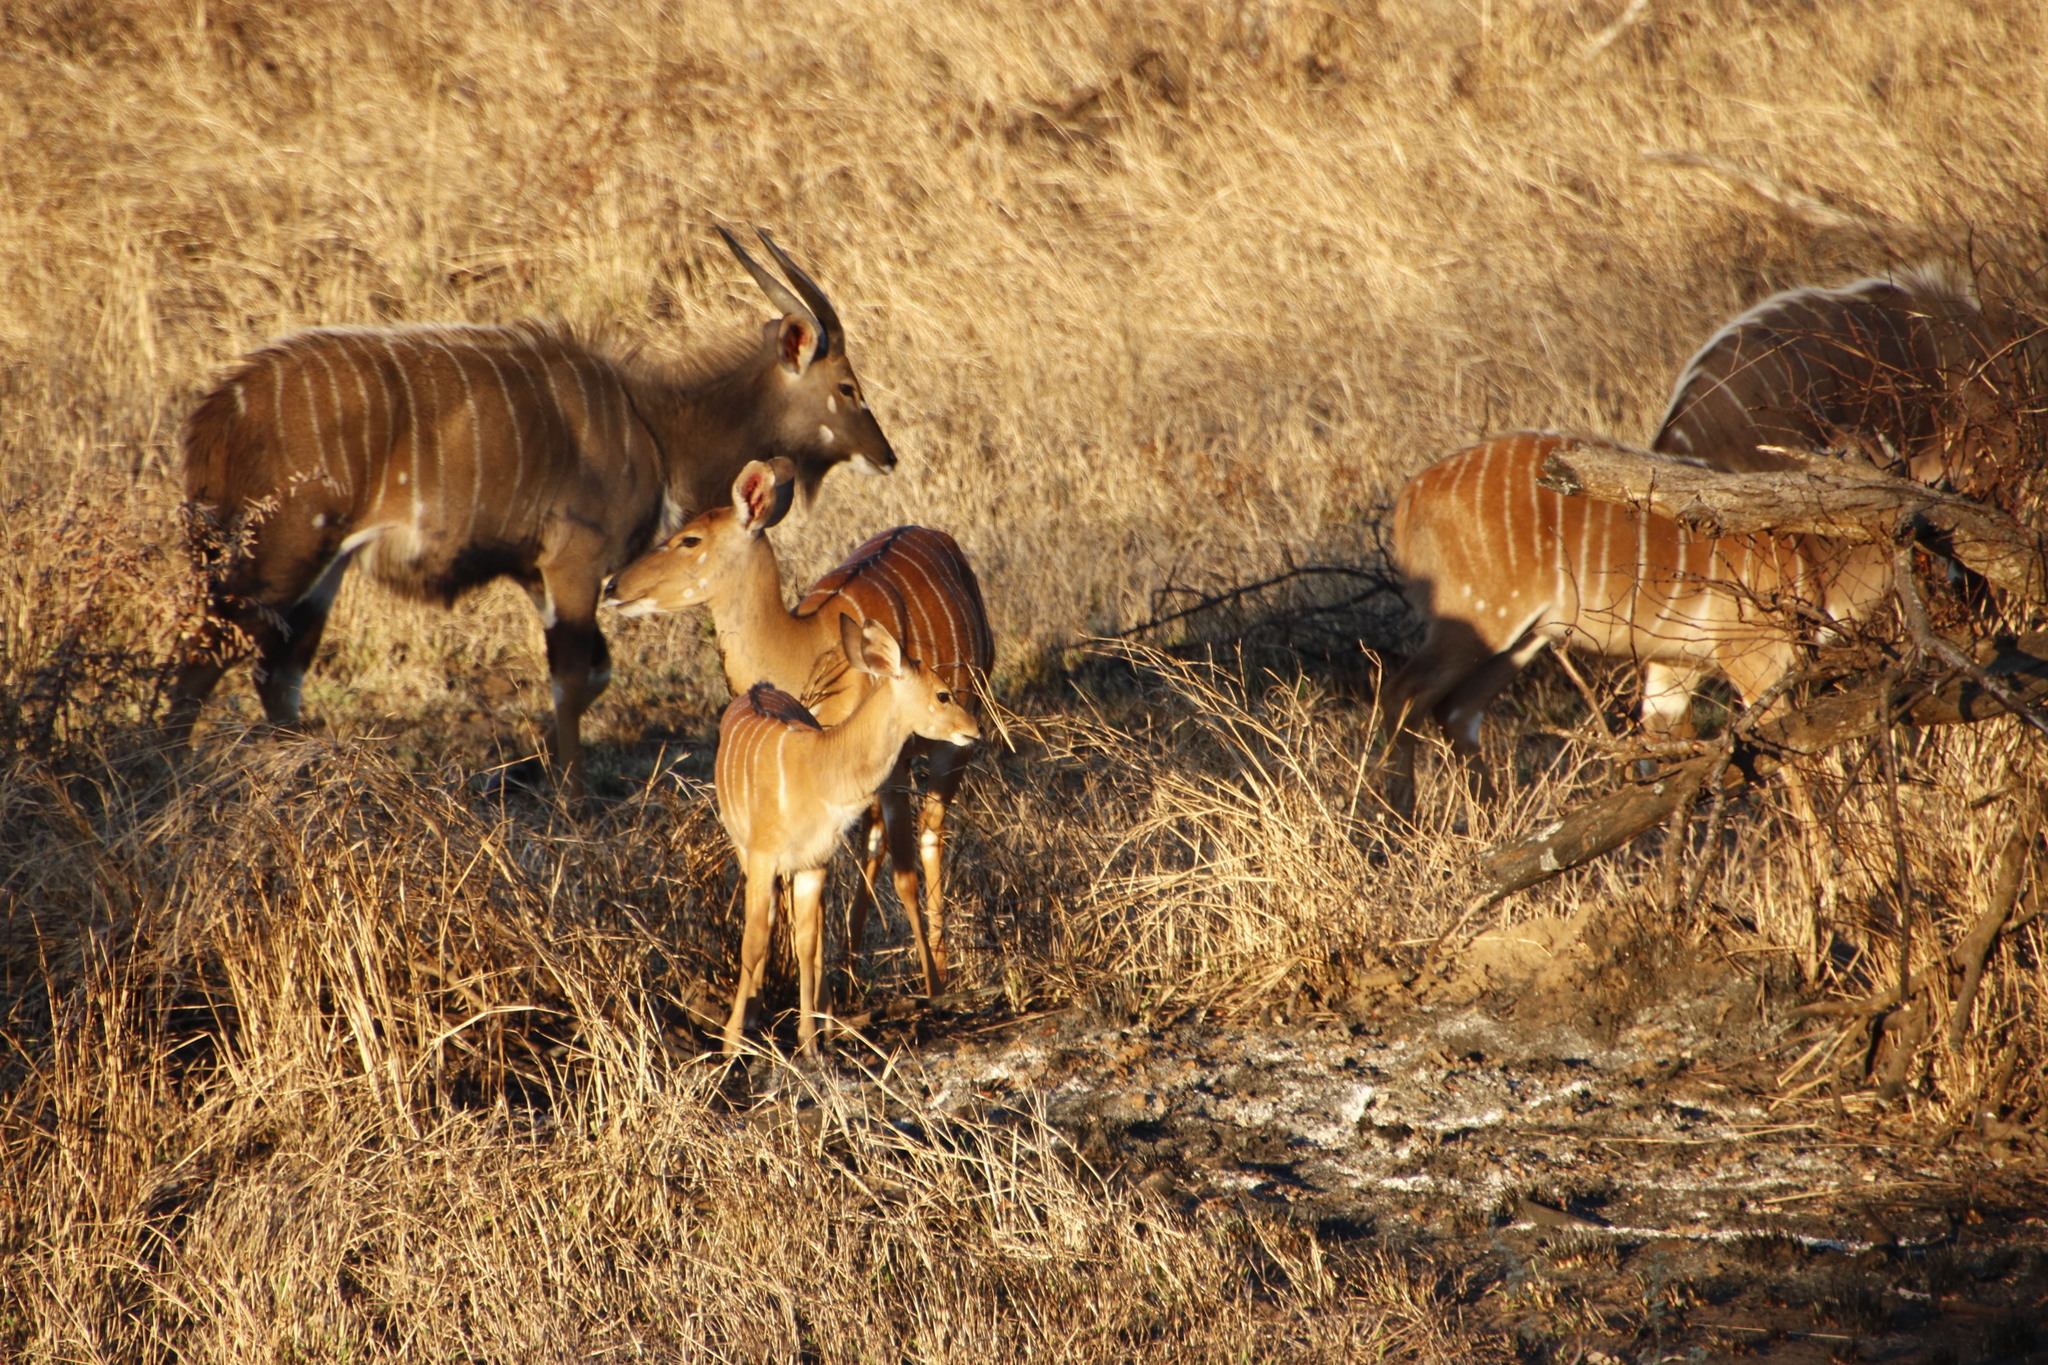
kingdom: Animalia
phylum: Chordata
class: Mammalia
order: Artiodactyla
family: Bovidae
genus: Tragelaphus
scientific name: Tragelaphus angasii
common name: Nyala
